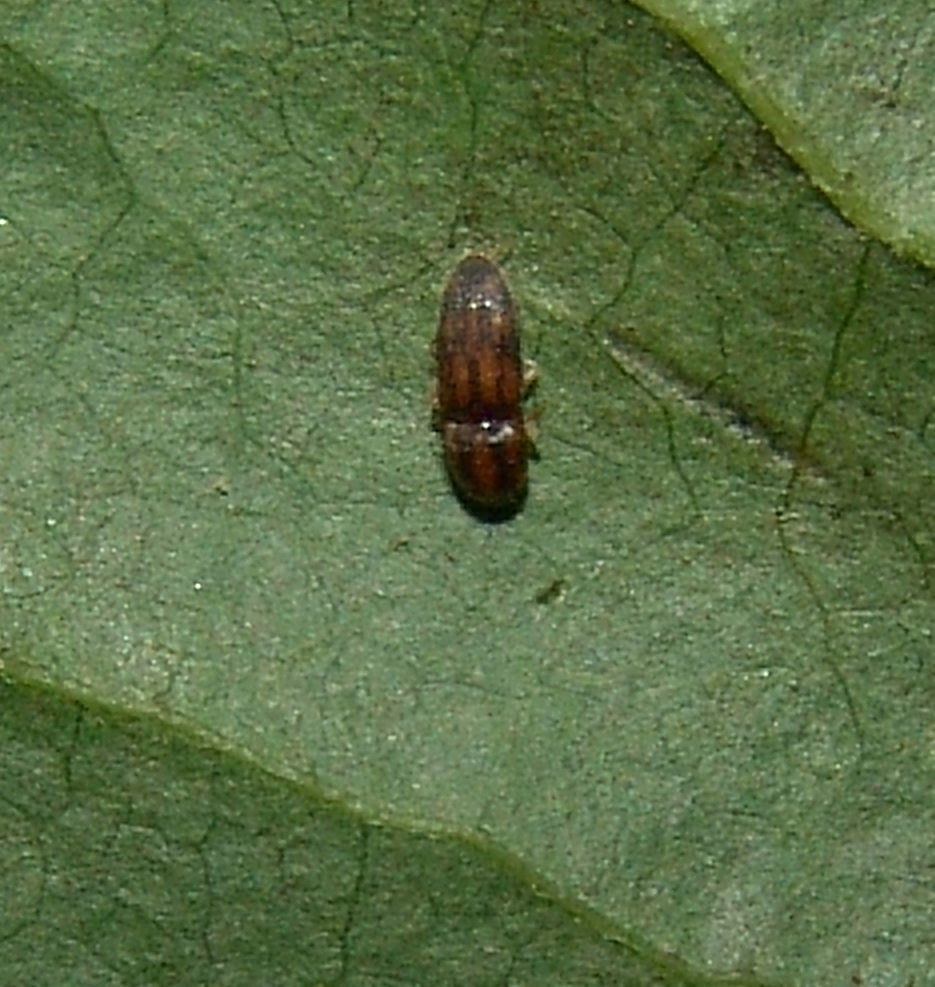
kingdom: Animalia
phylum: Arthropoda
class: Insecta
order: Coleoptera
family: Elateridae
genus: Monocrepidius
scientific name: Monocrepidius bellus
